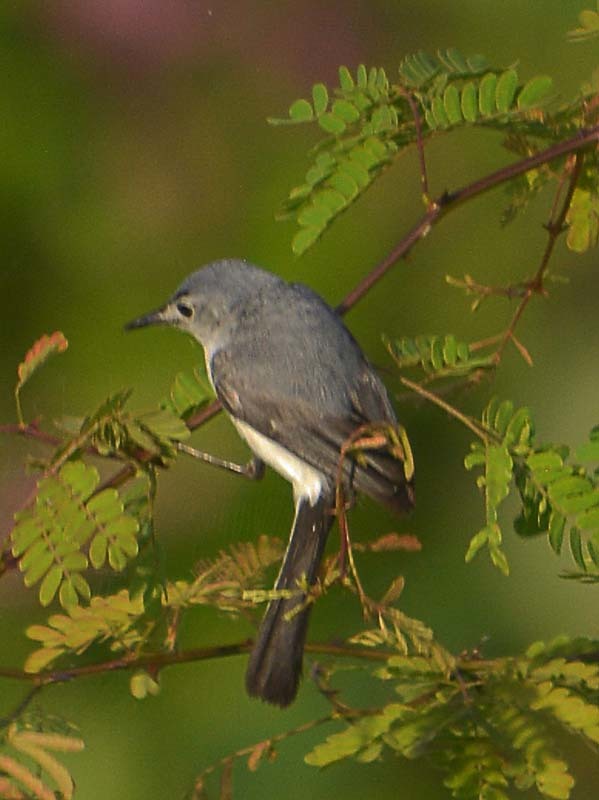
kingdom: Animalia
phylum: Chordata
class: Aves
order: Passeriformes
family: Polioptilidae
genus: Polioptila
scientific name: Polioptila caerulea
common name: Blue-gray gnatcatcher
